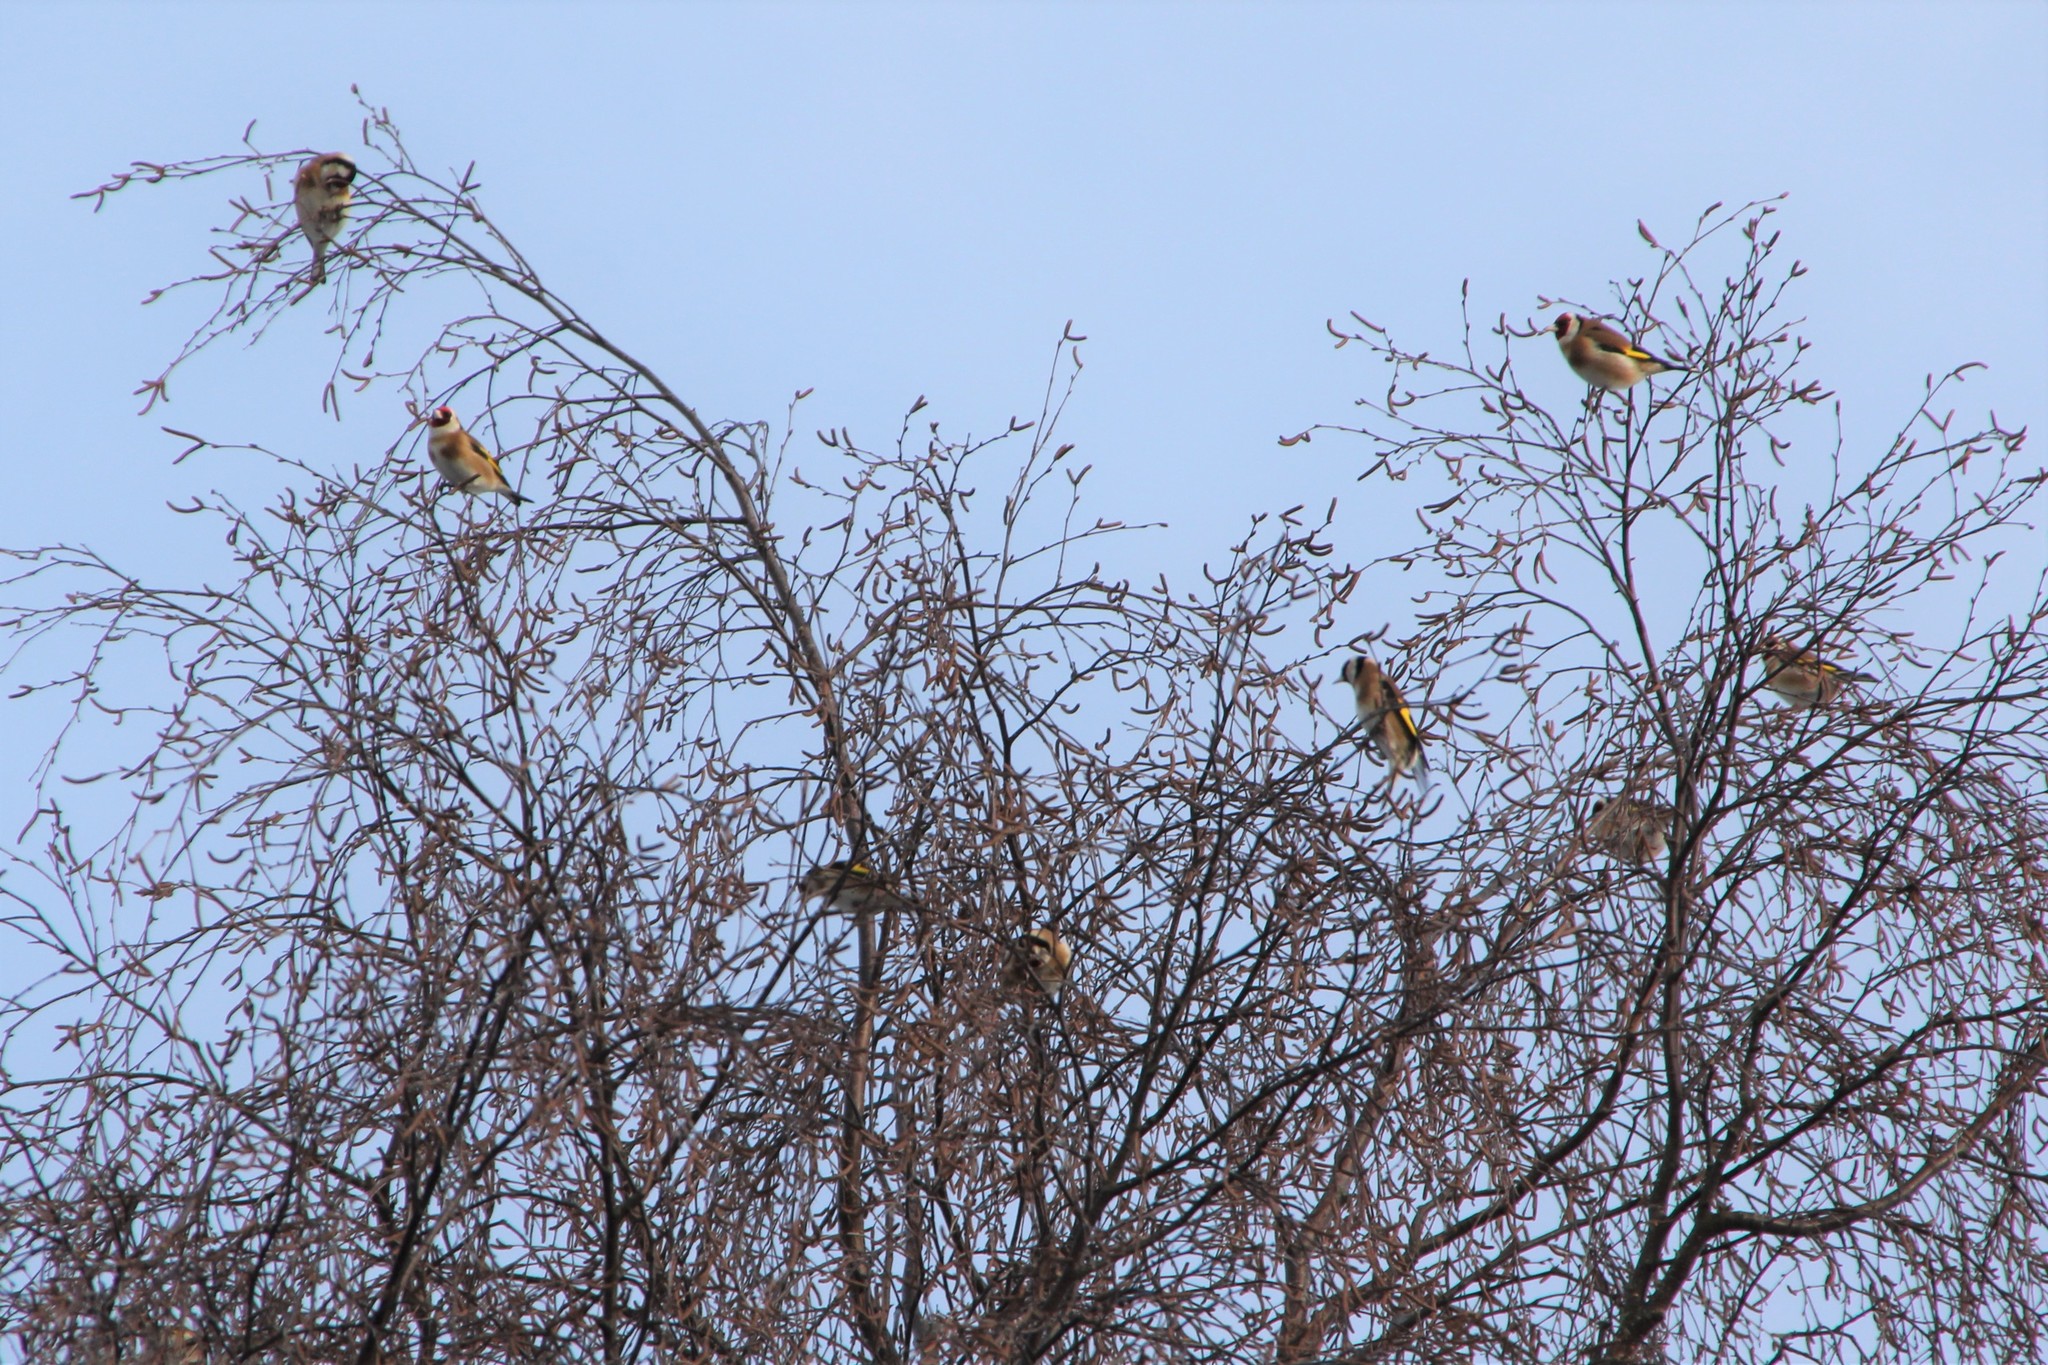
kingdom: Animalia
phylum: Chordata
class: Aves
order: Passeriformes
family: Fringillidae
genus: Carduelis
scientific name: Carduelis carduelis
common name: European goldfinch
